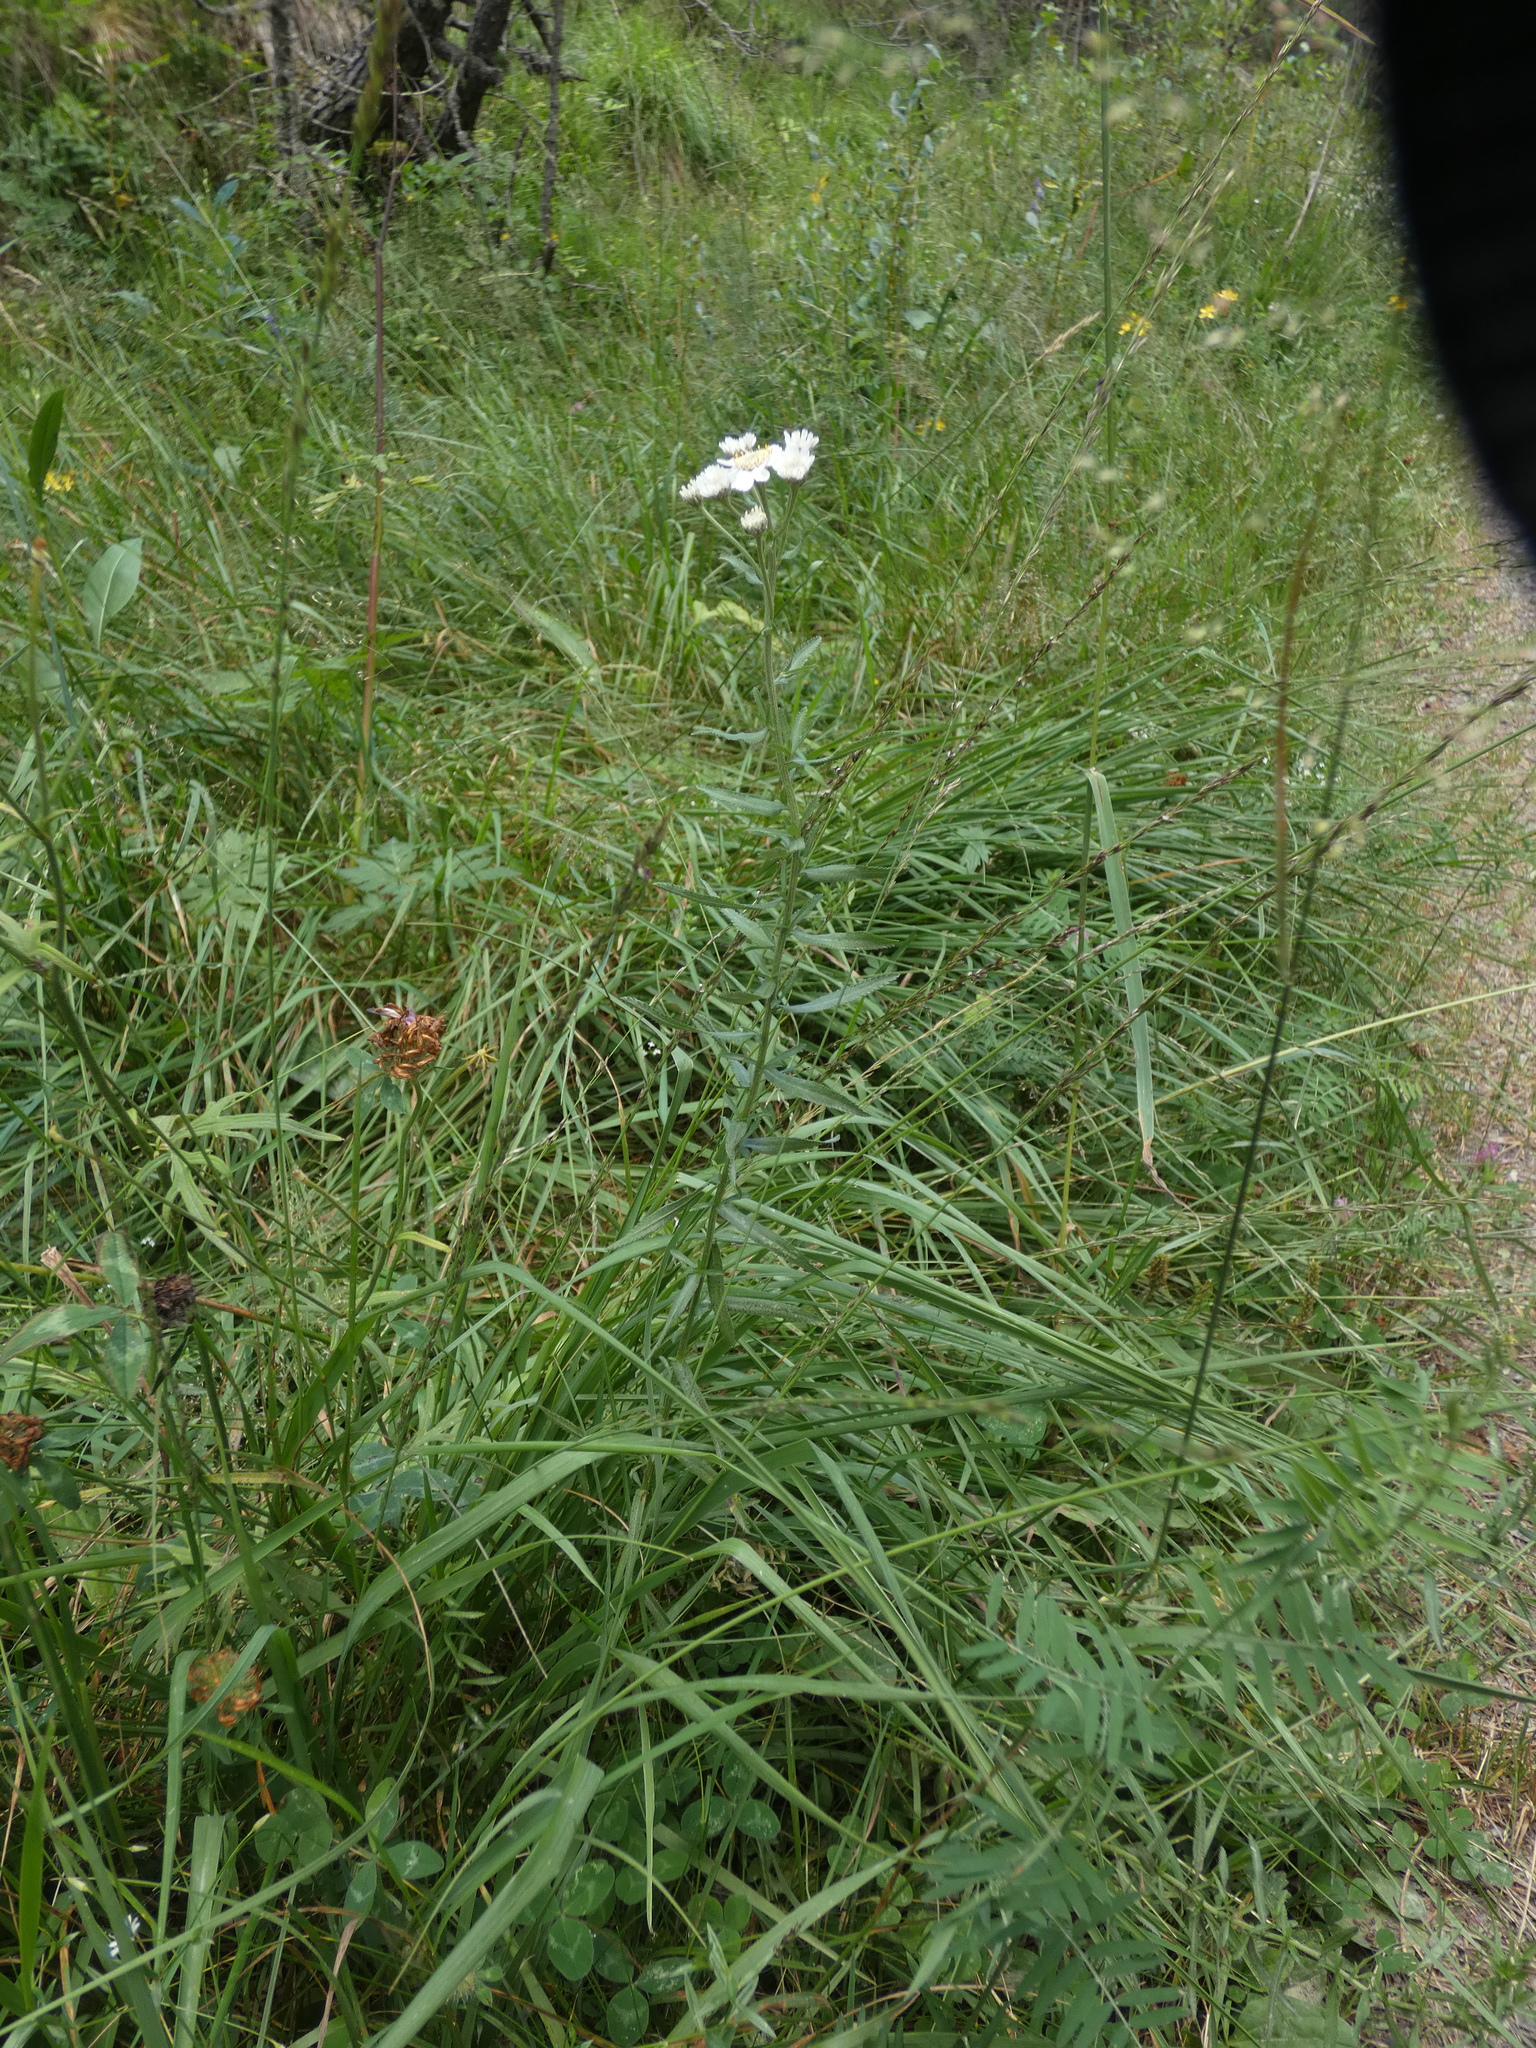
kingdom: Plantae
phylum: Tracheophyta
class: Magnoliopsida
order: Asterales
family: Asteraceae
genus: Achillea
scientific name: Achillea pyrenaica
